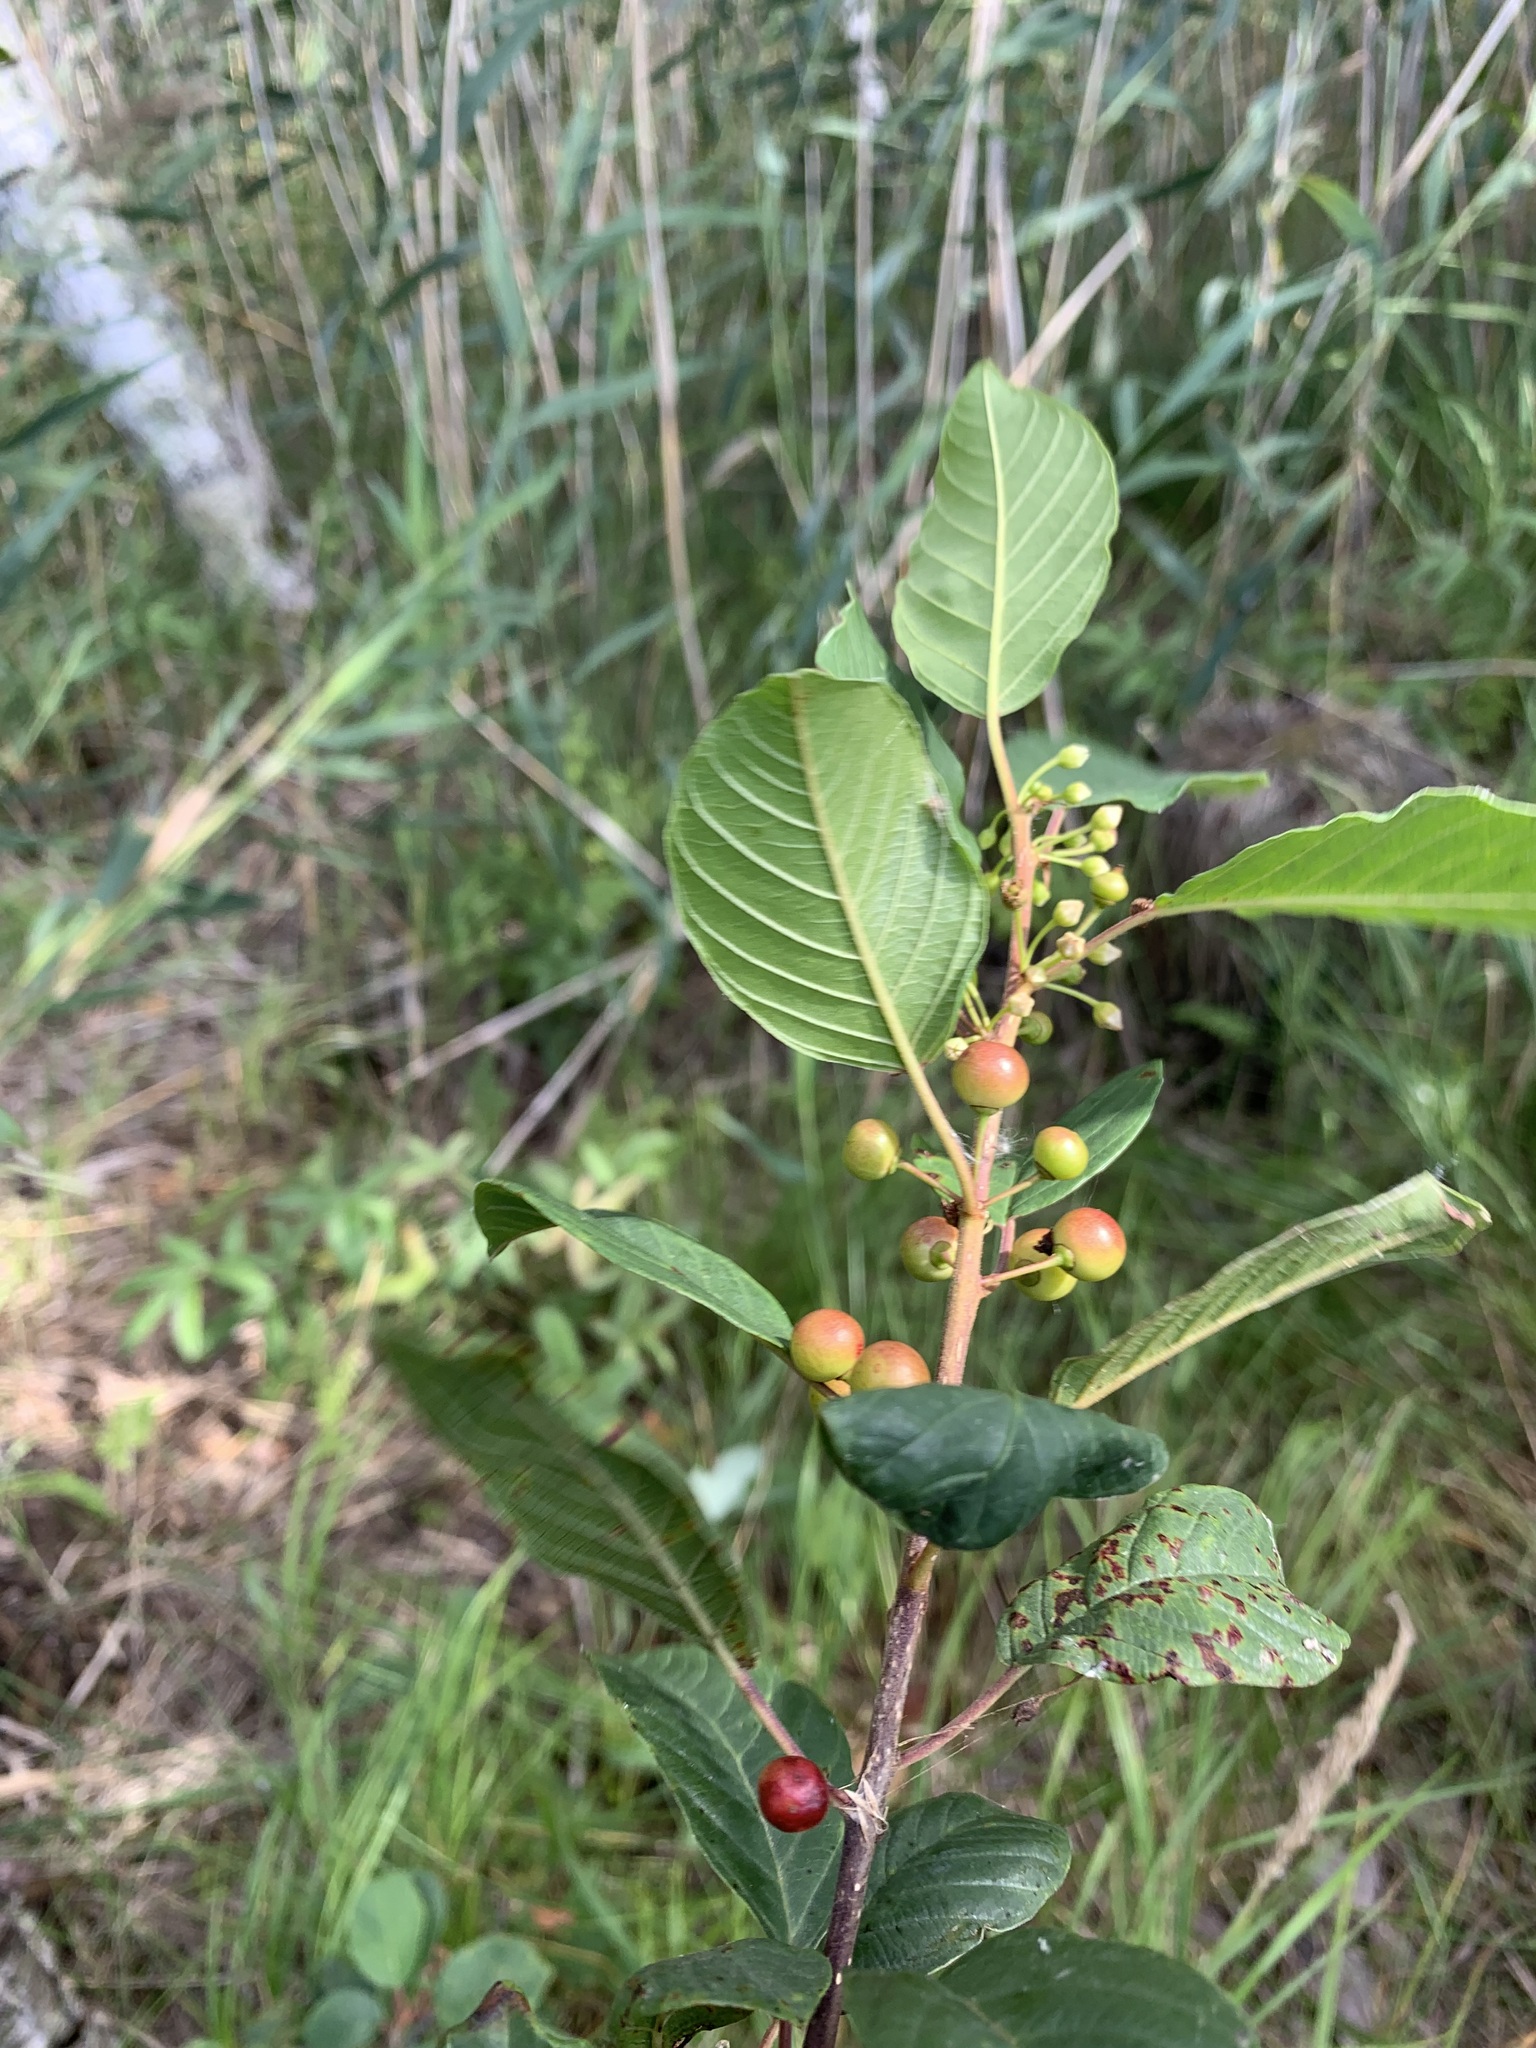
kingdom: Plantae
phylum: Tracheophyta
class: Magnoliopsida
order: Rosales
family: Rhamnaceae
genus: Frangula
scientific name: Frangula alnus
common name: Alder buckthorn
